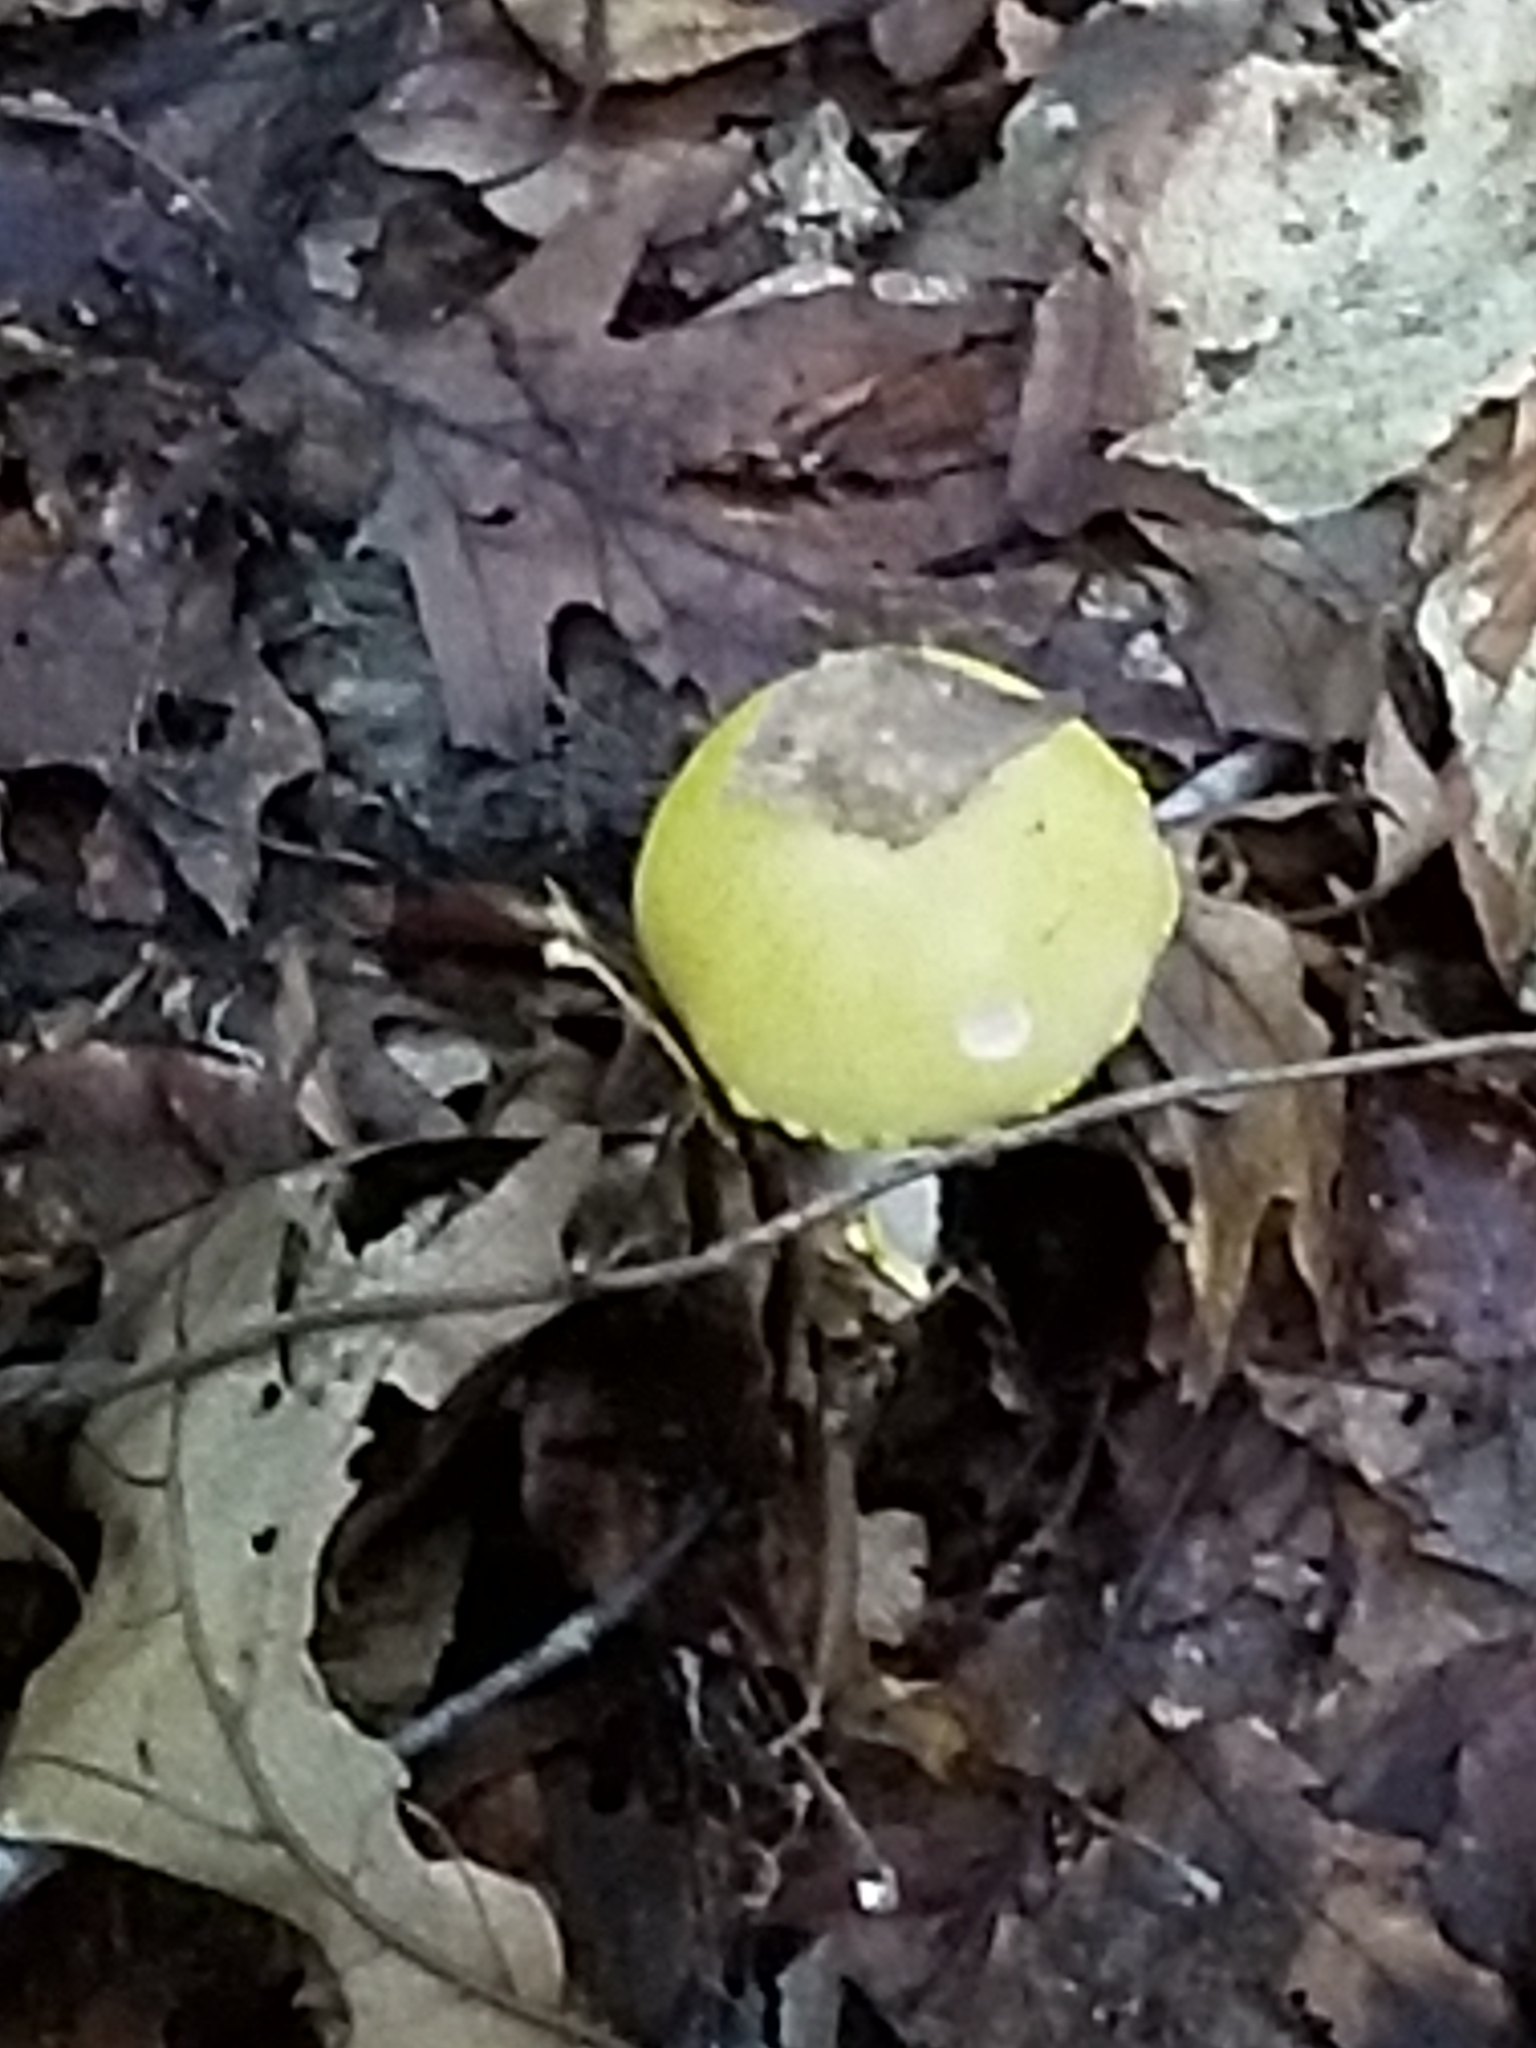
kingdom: Fungi
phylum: Basidiomycota
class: Agaricomycetes
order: Agaricales
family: Amanitaceae
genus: Amanita
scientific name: Amanita flavorubens
